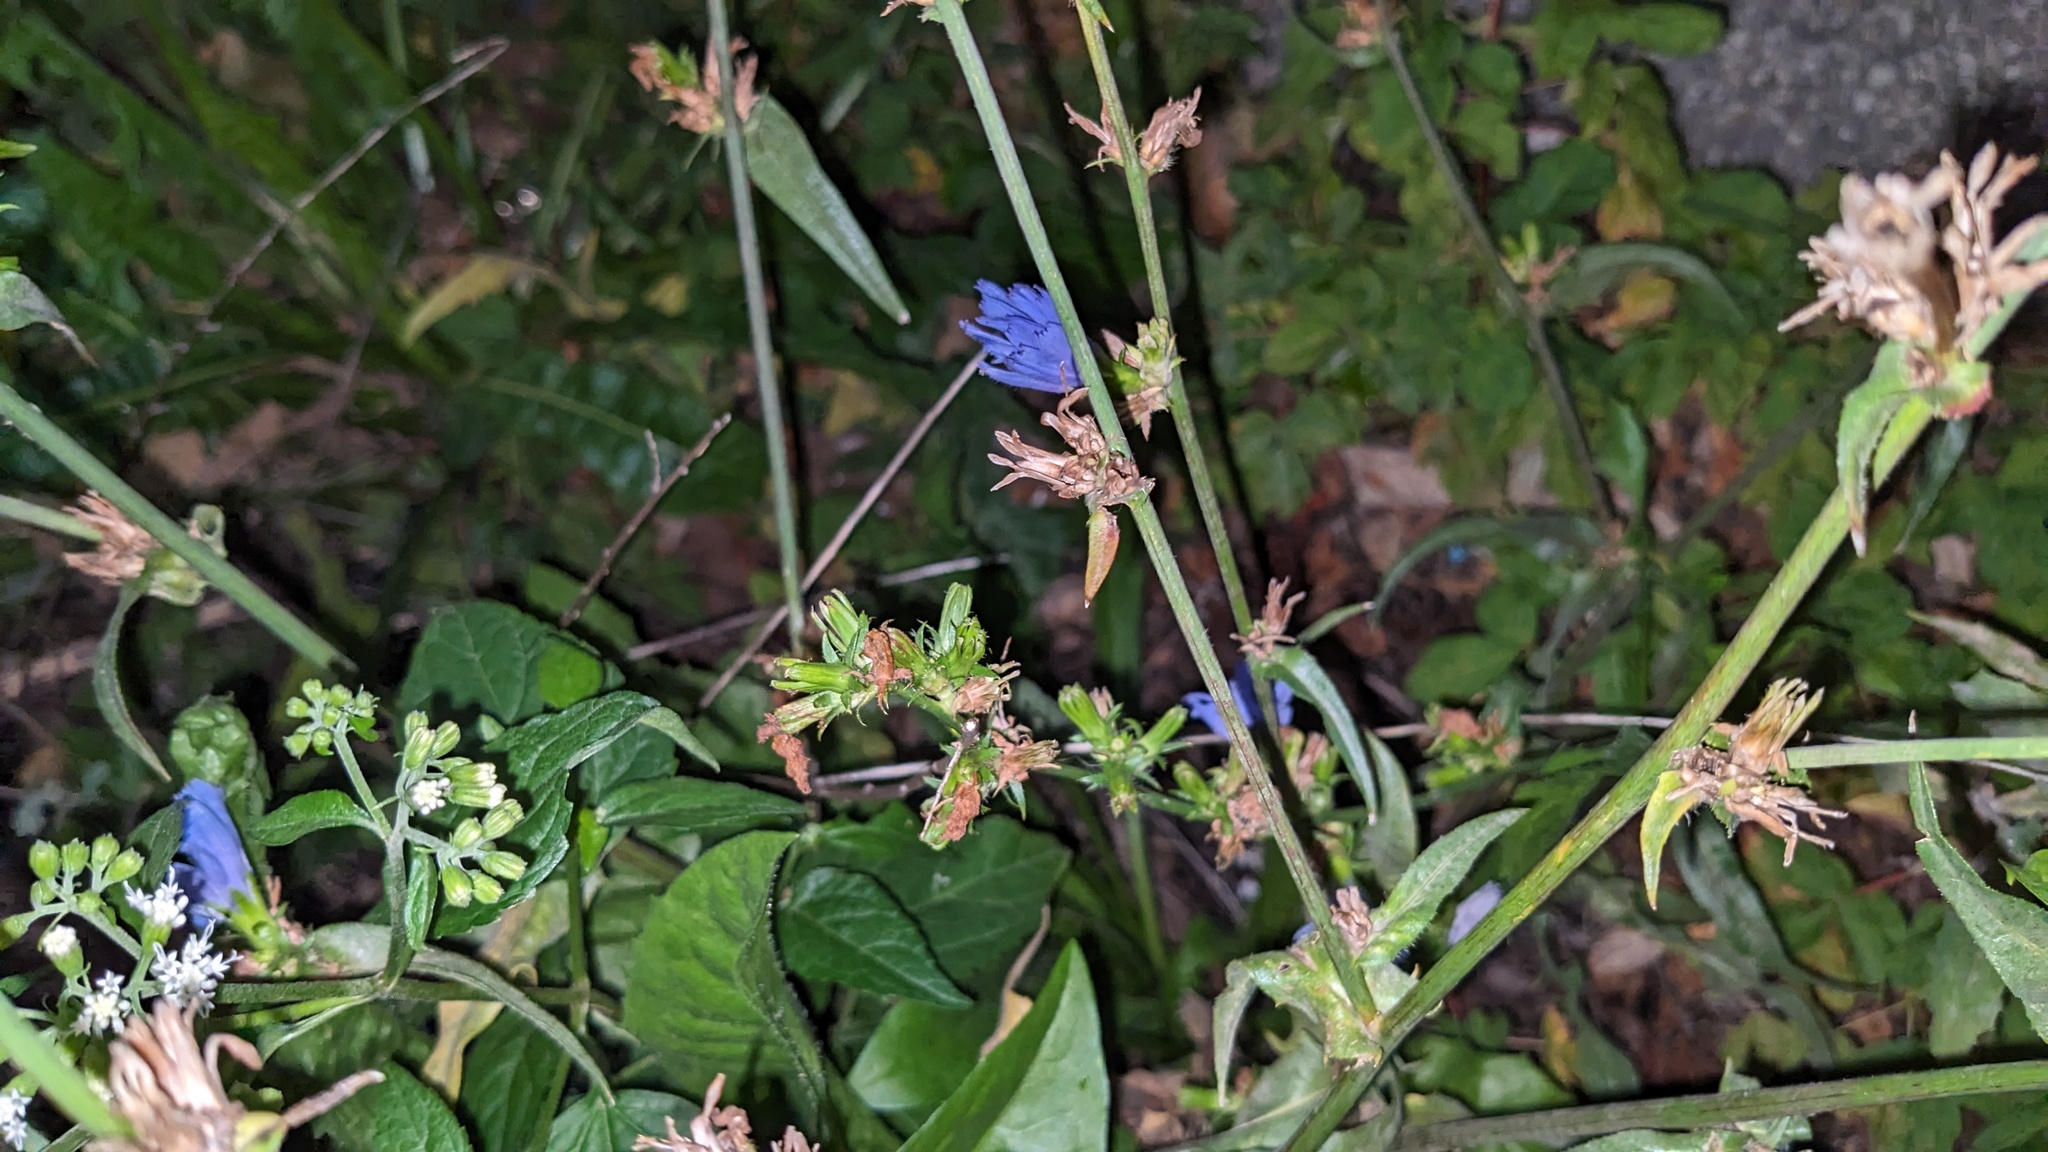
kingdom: Plantae
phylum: Tracheophyta
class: Magnoliopsida
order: Asterales
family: Asteraceae
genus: Cichorium
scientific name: Cichorium intybus
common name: Chicory
